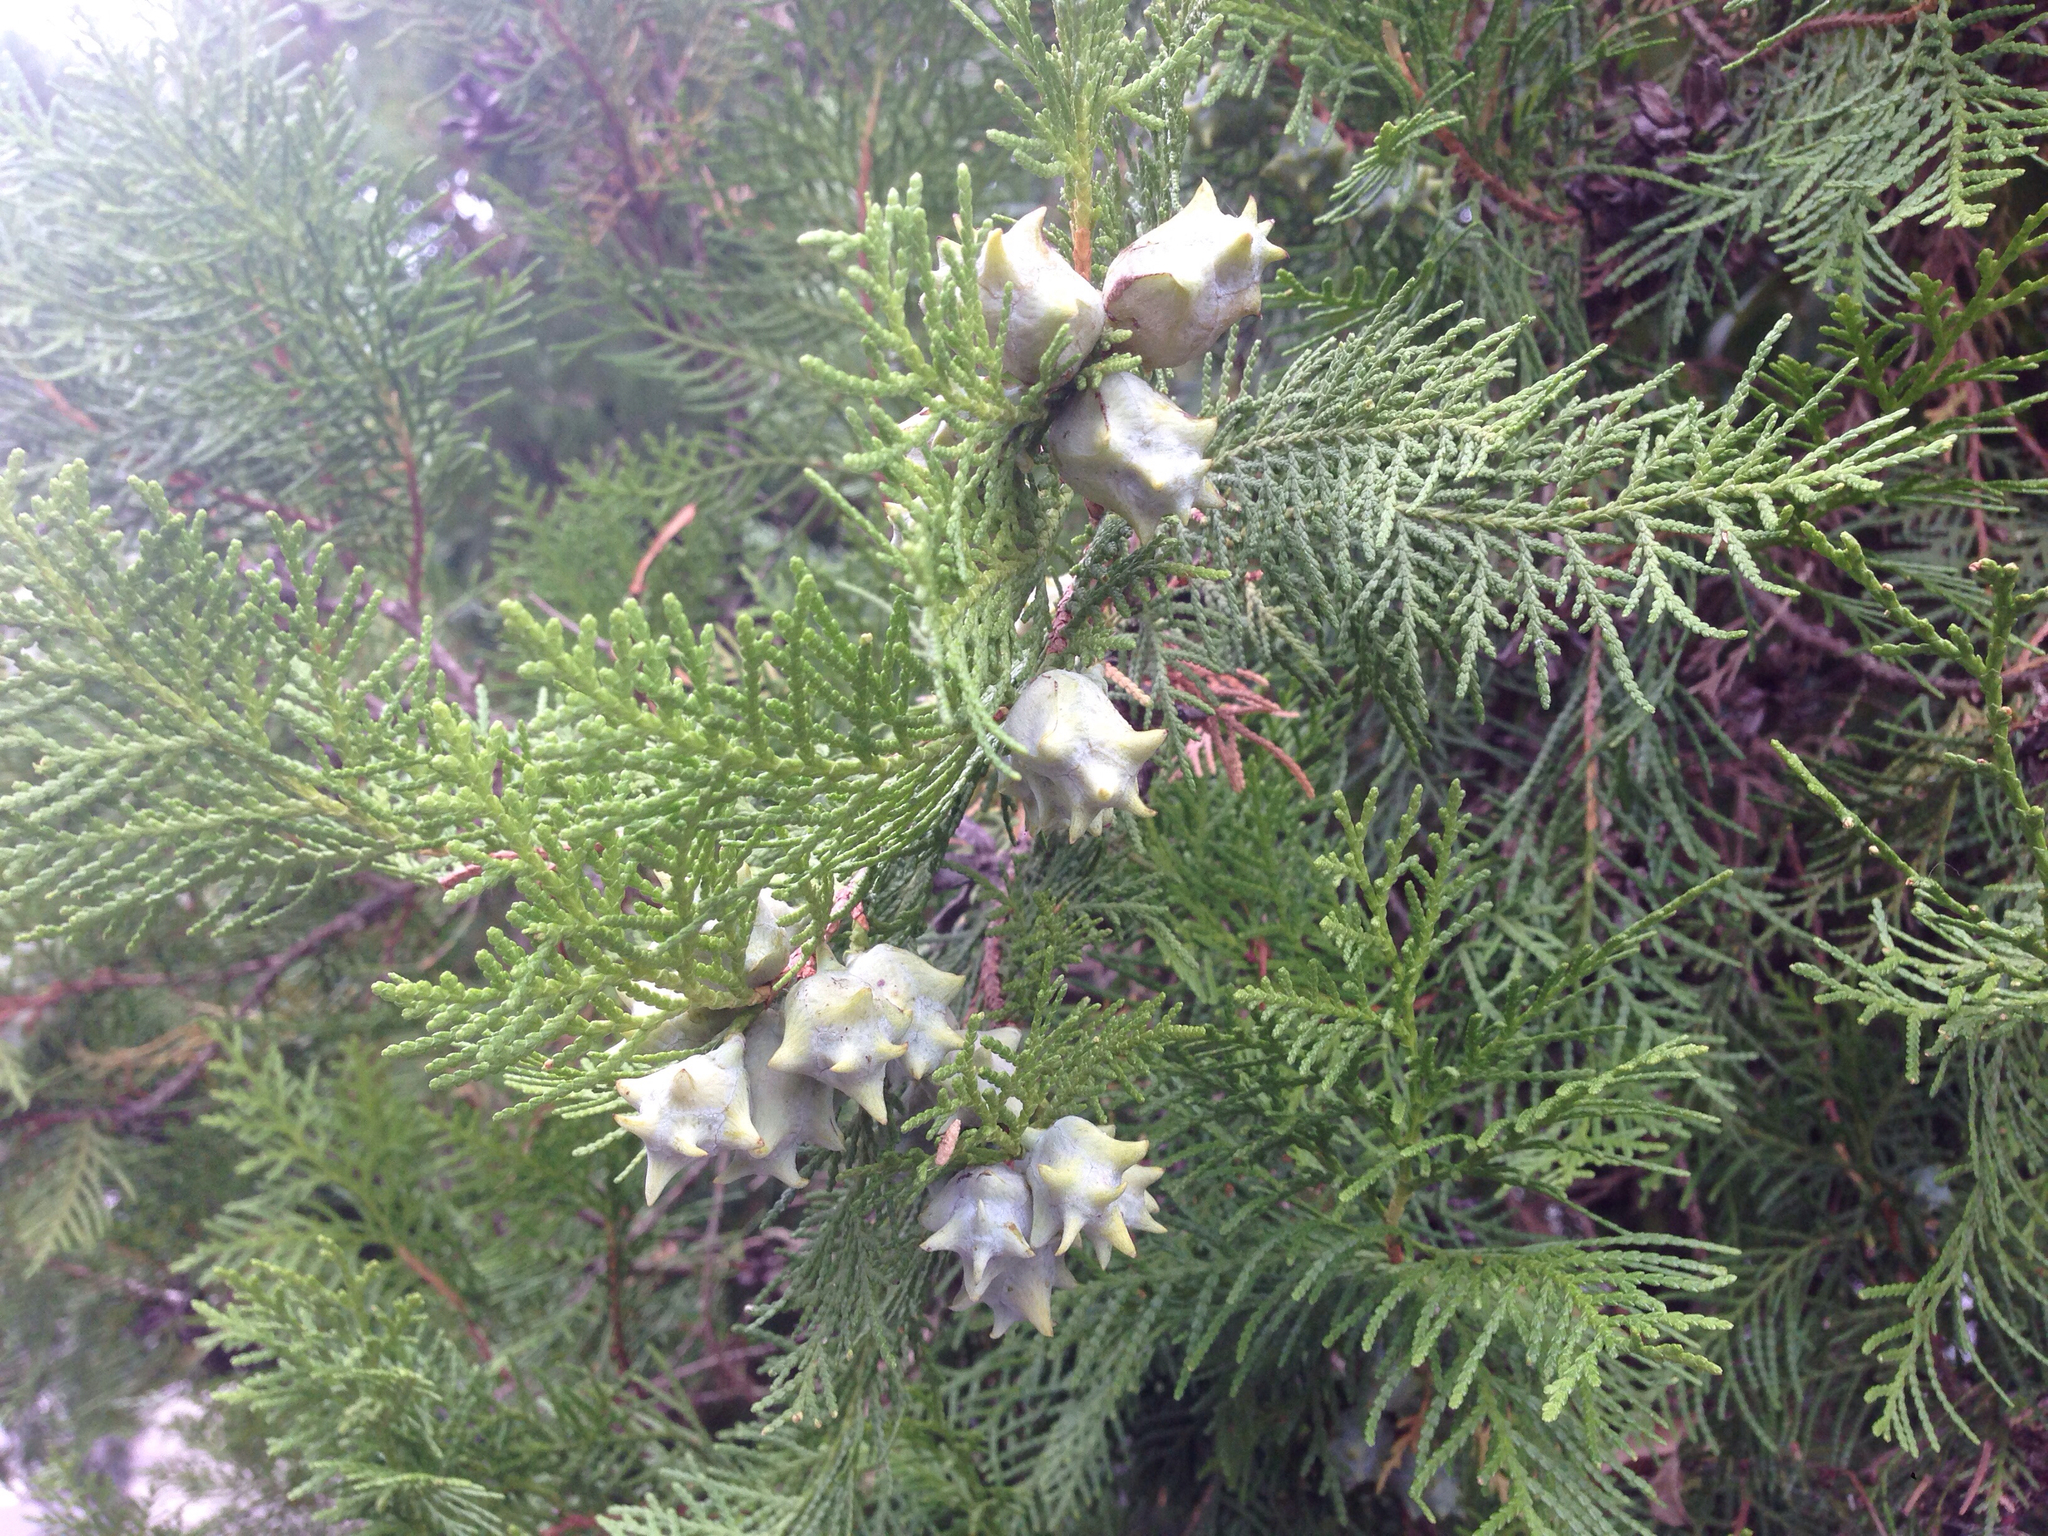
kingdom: Plantae
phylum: Tracheophyta
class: Pinopsida
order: Pinales
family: Cupressaceae
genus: Platycladus
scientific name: Platycladus orientalis
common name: Chinese thuja
